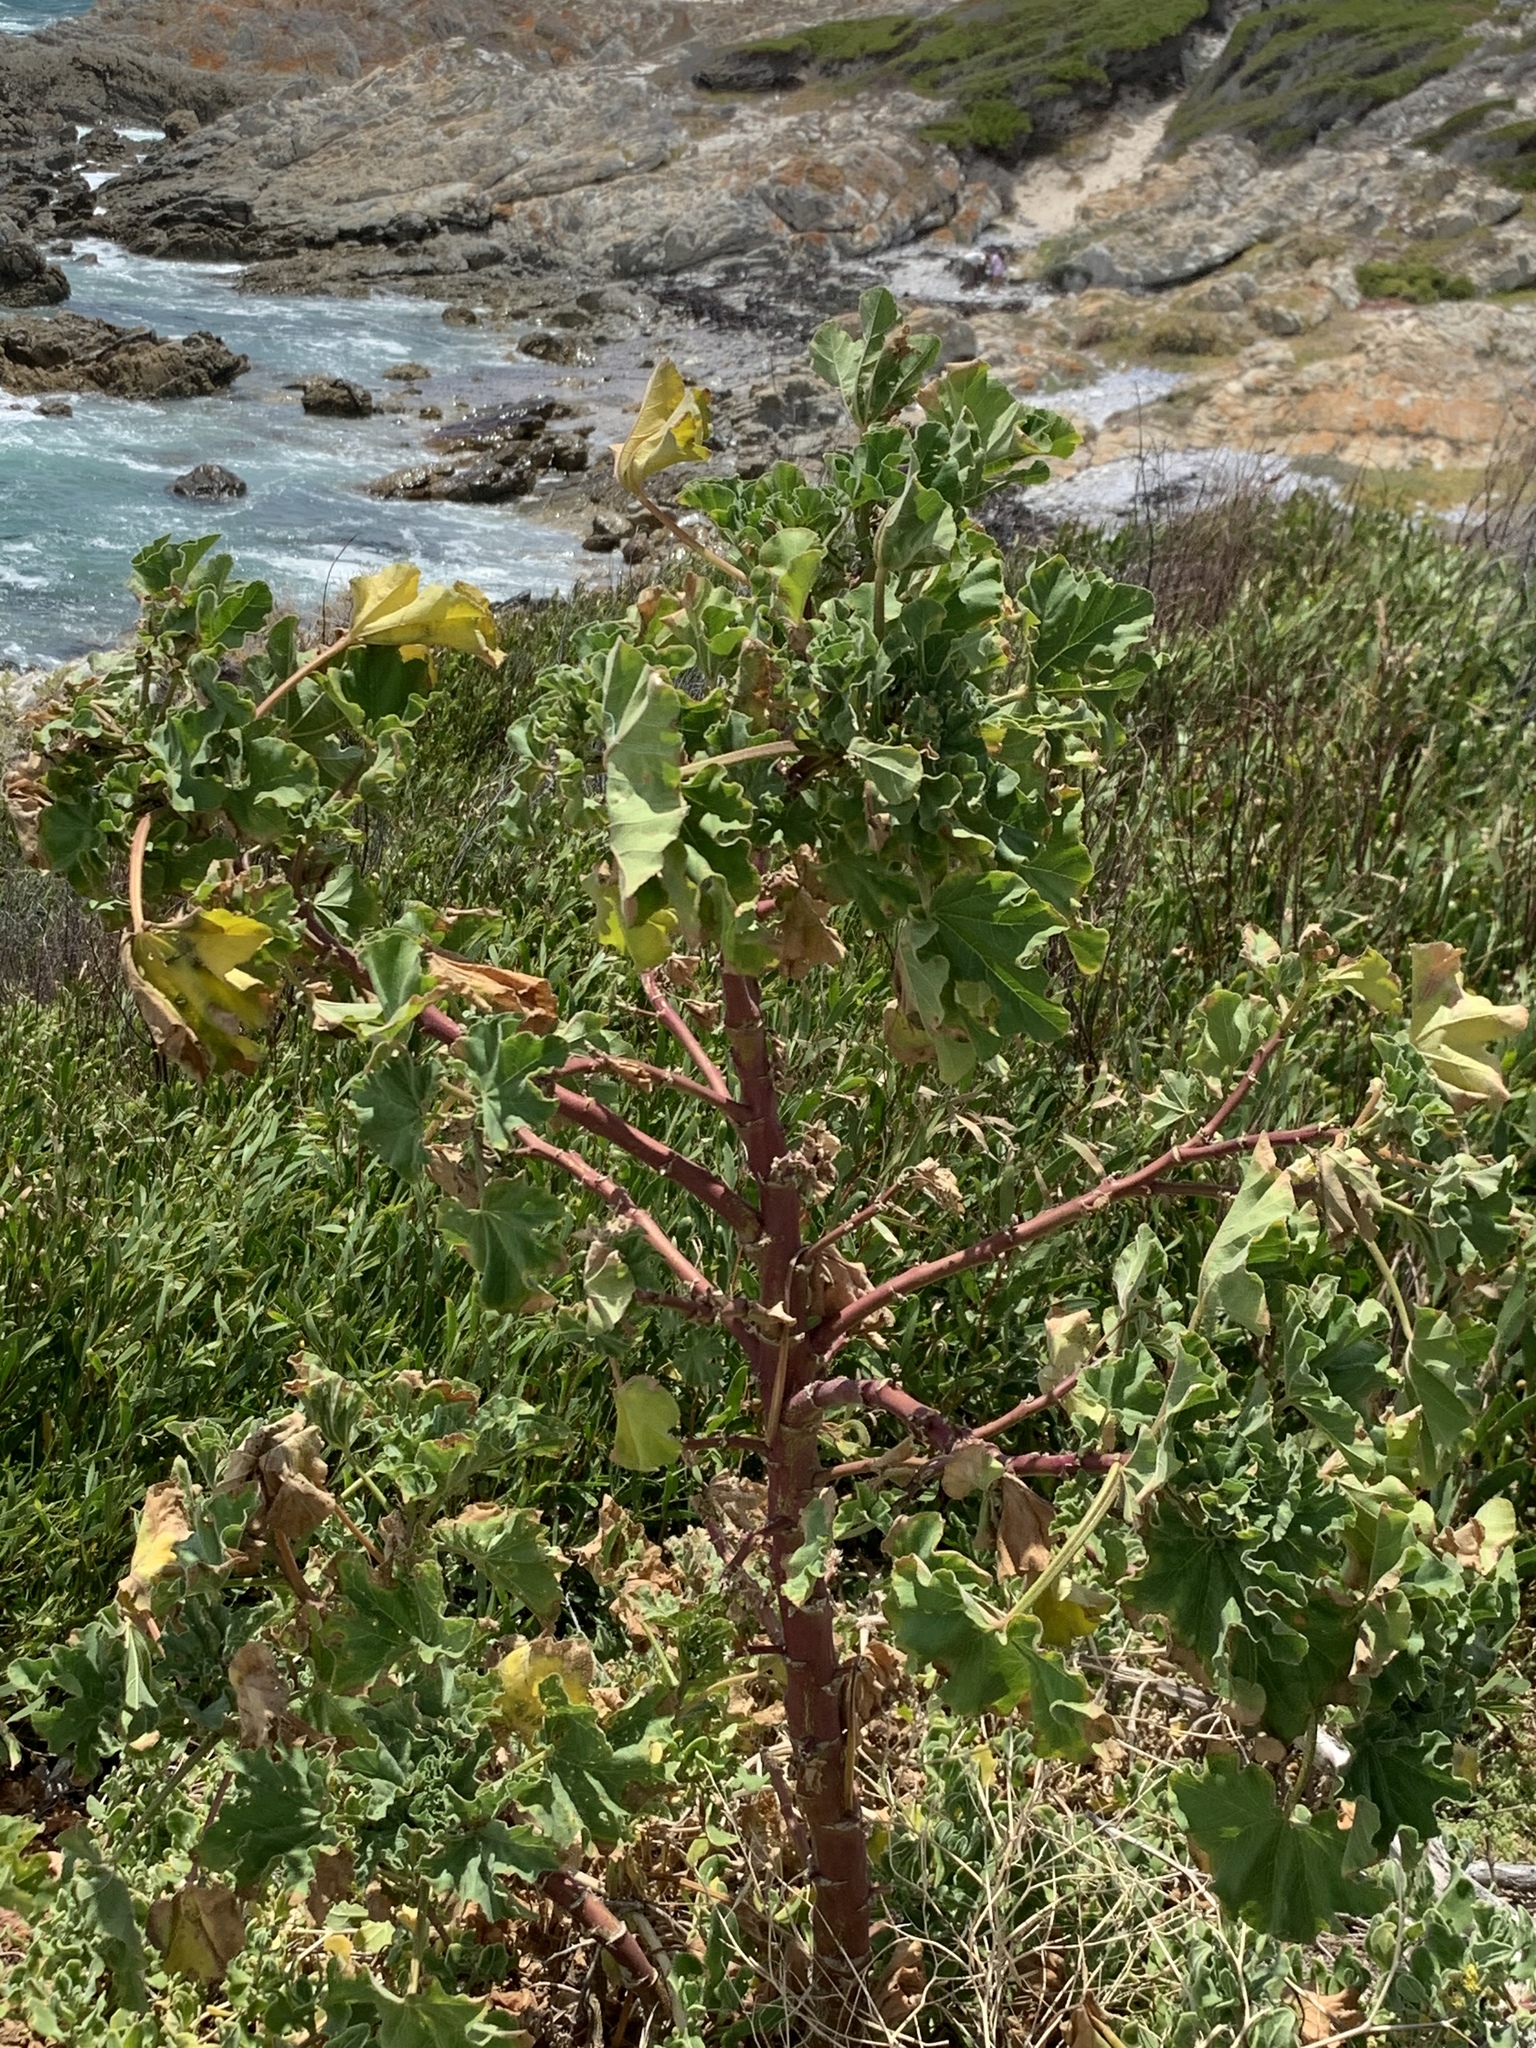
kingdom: Plantae
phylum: Tracheophyta
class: Magnoliopsida
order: Malvales
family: Malvaceae
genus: Malva
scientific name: Malva arborea
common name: Tree mallow
